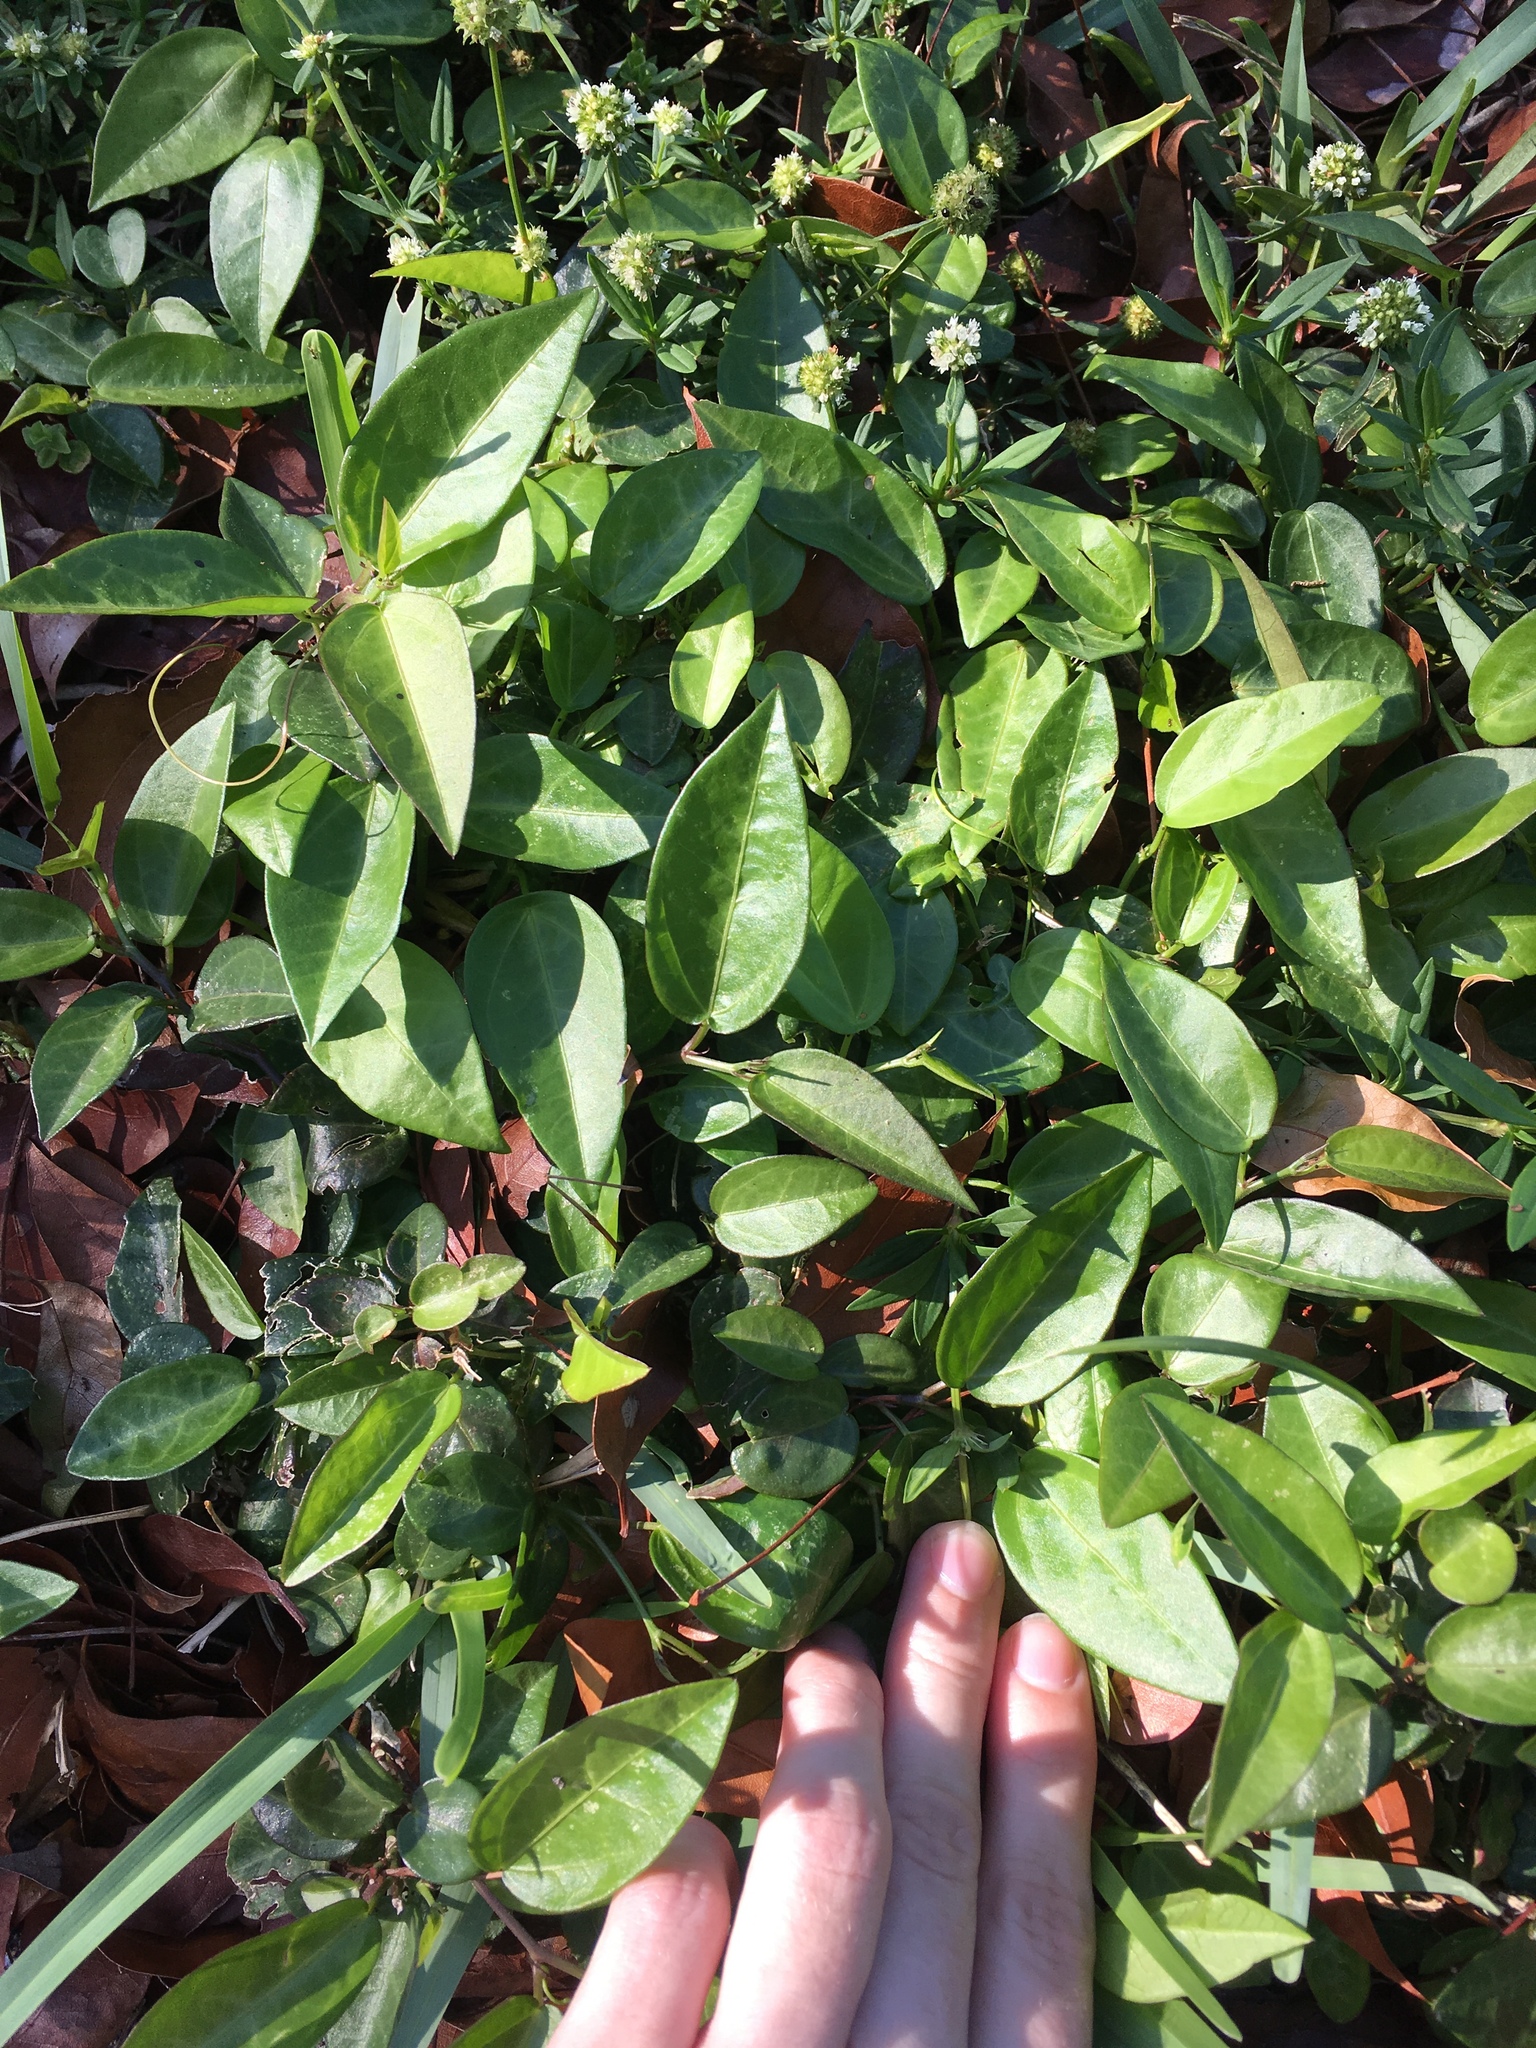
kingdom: Plantae
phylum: Tracheophyta
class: Magnoliopsida
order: Malpighiales
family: Passifloraceae
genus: Passiflora
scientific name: Passiflora pallida
